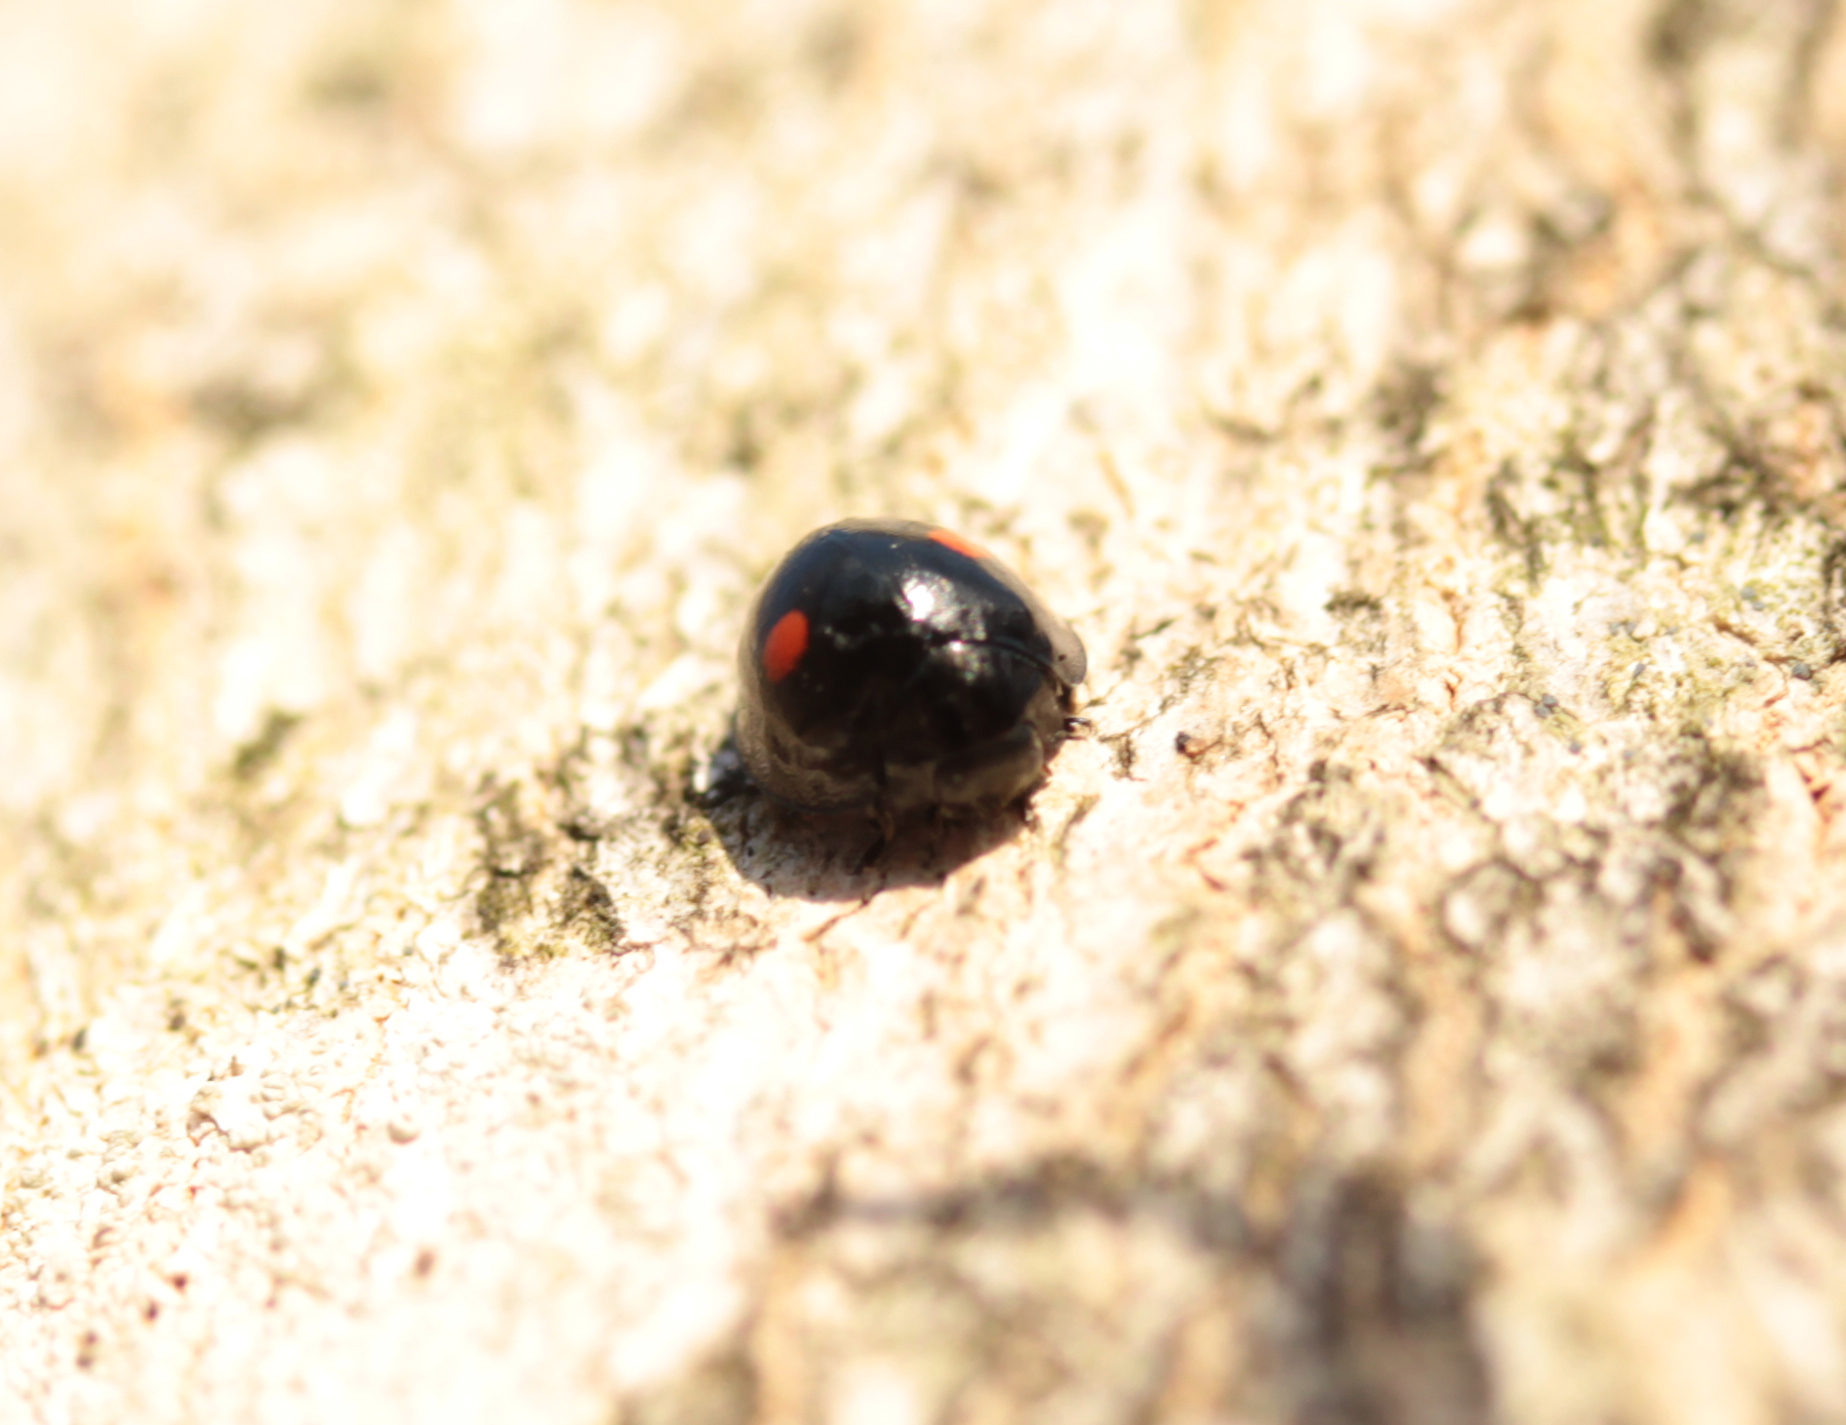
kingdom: Animalia
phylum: Arthropoda
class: Insecta
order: Coleoptera
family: Coccinellidae
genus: Chilocorus
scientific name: Chilocorus stigma
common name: Twicestabbed lady beetle
